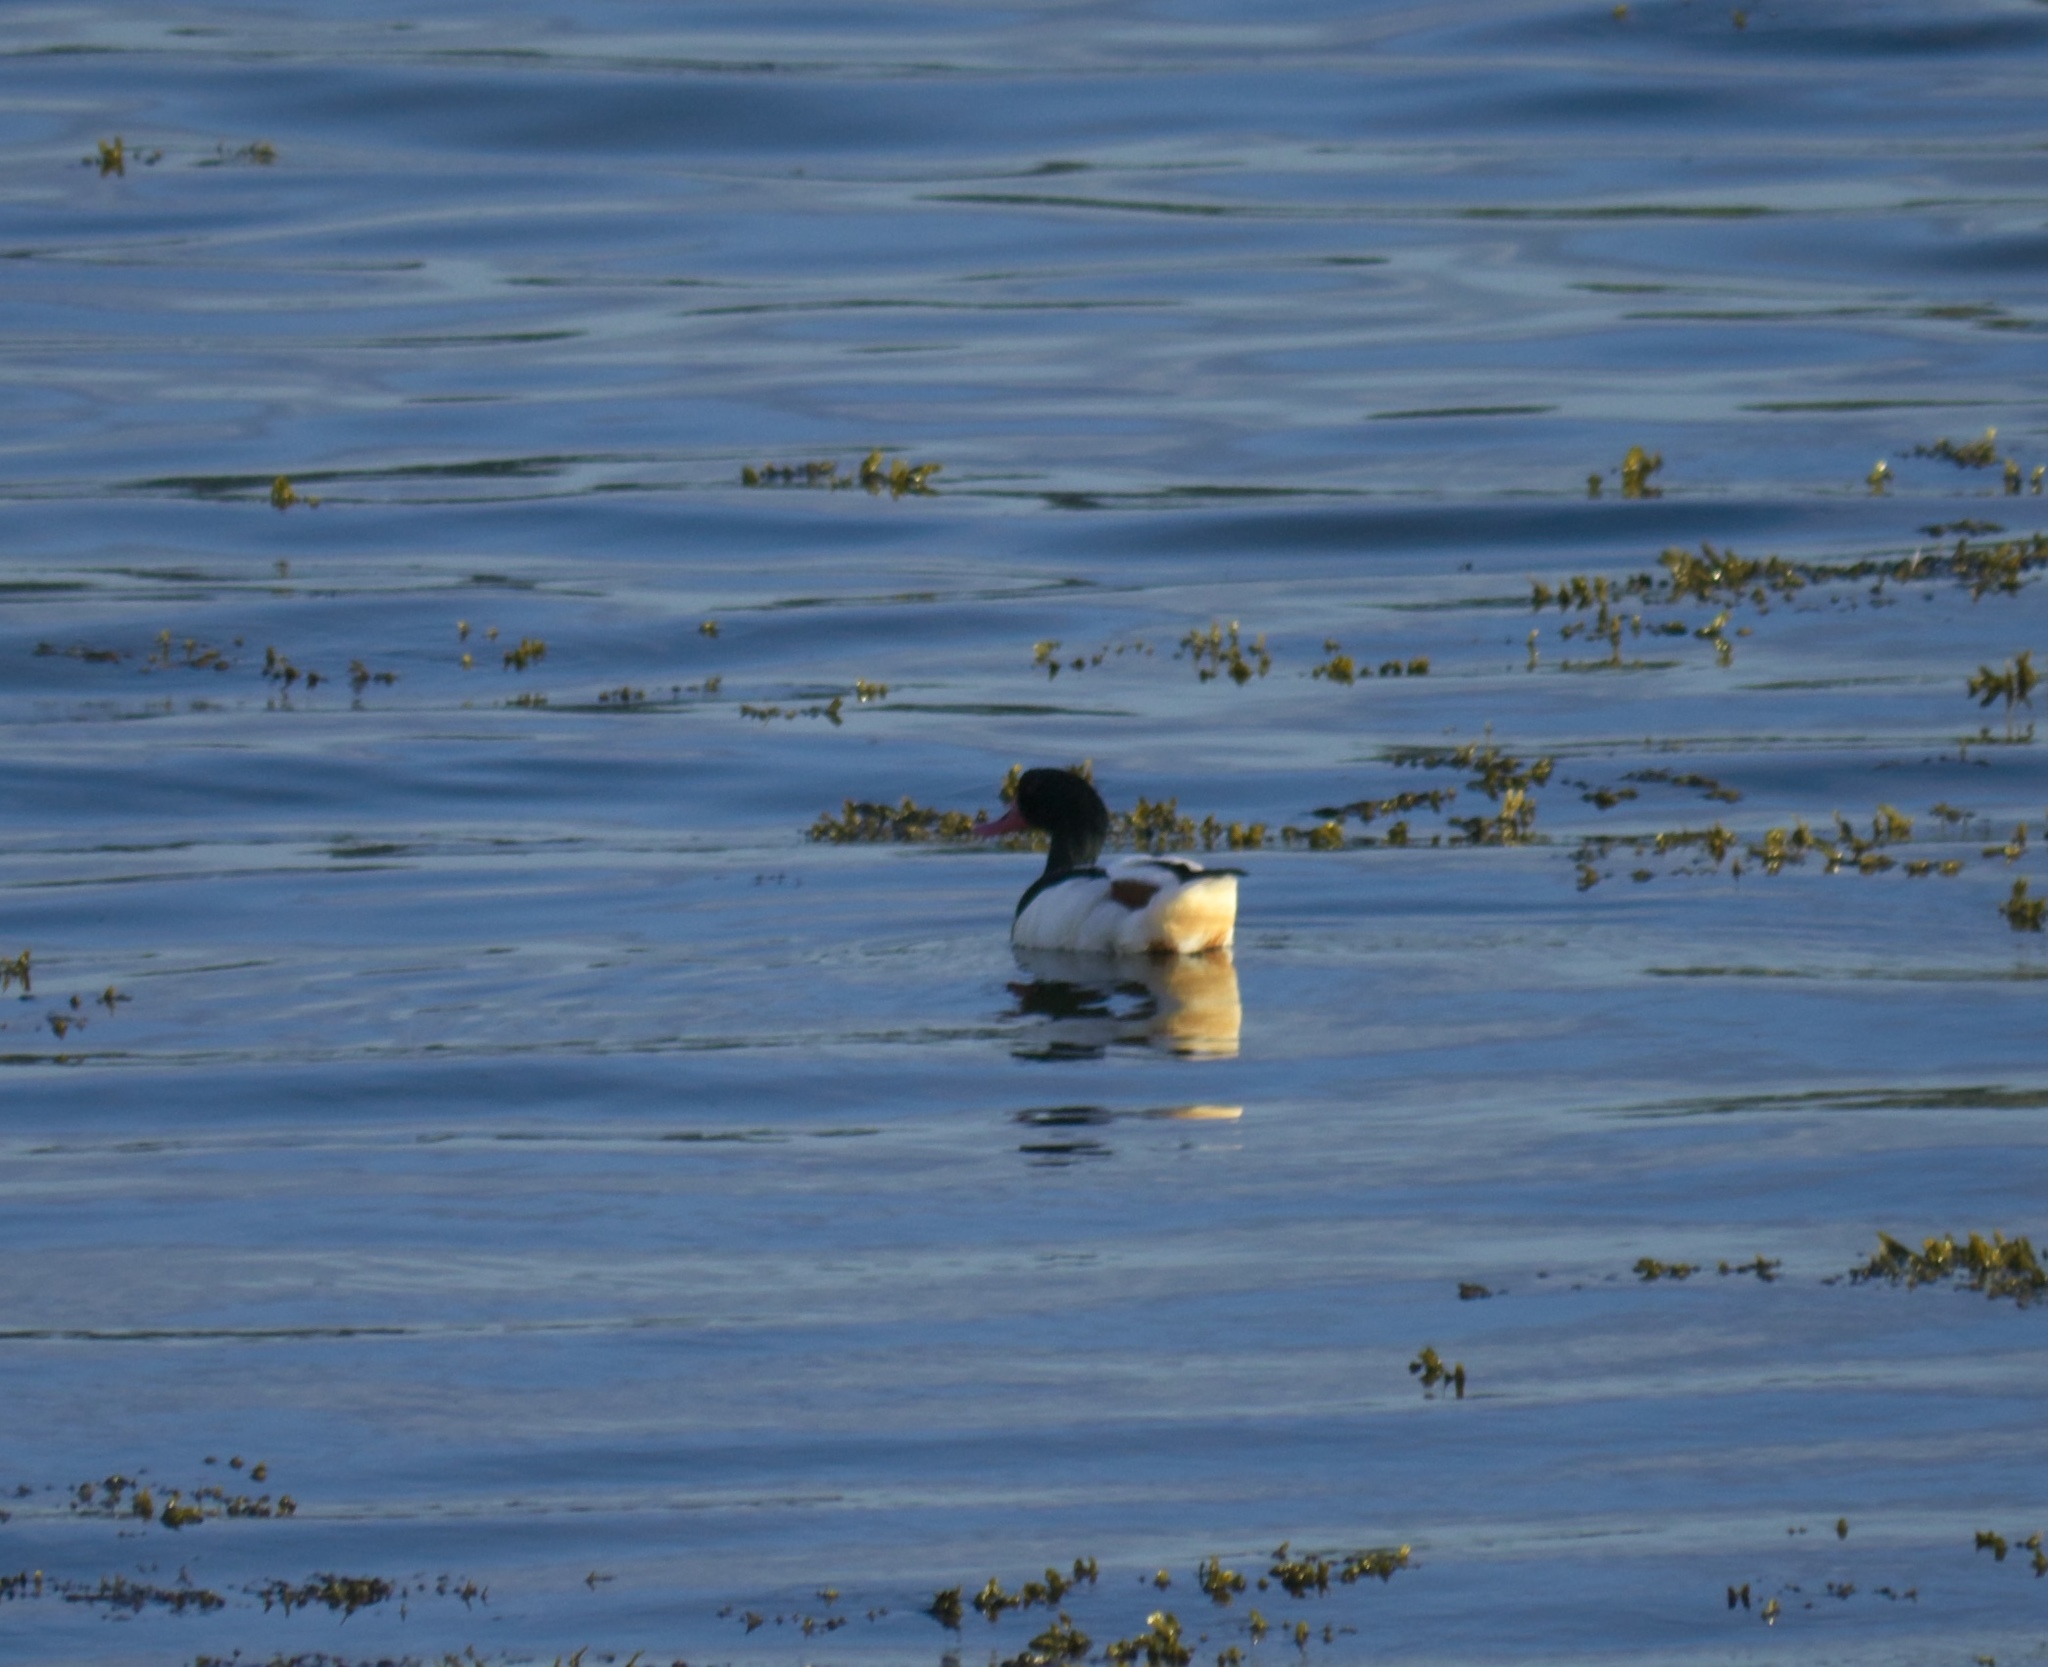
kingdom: Animalia
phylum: Chordata
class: Aves
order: Anseriformes
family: Anatidae
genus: Tadorna
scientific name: Tadorna tadorna
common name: Common shelduck
